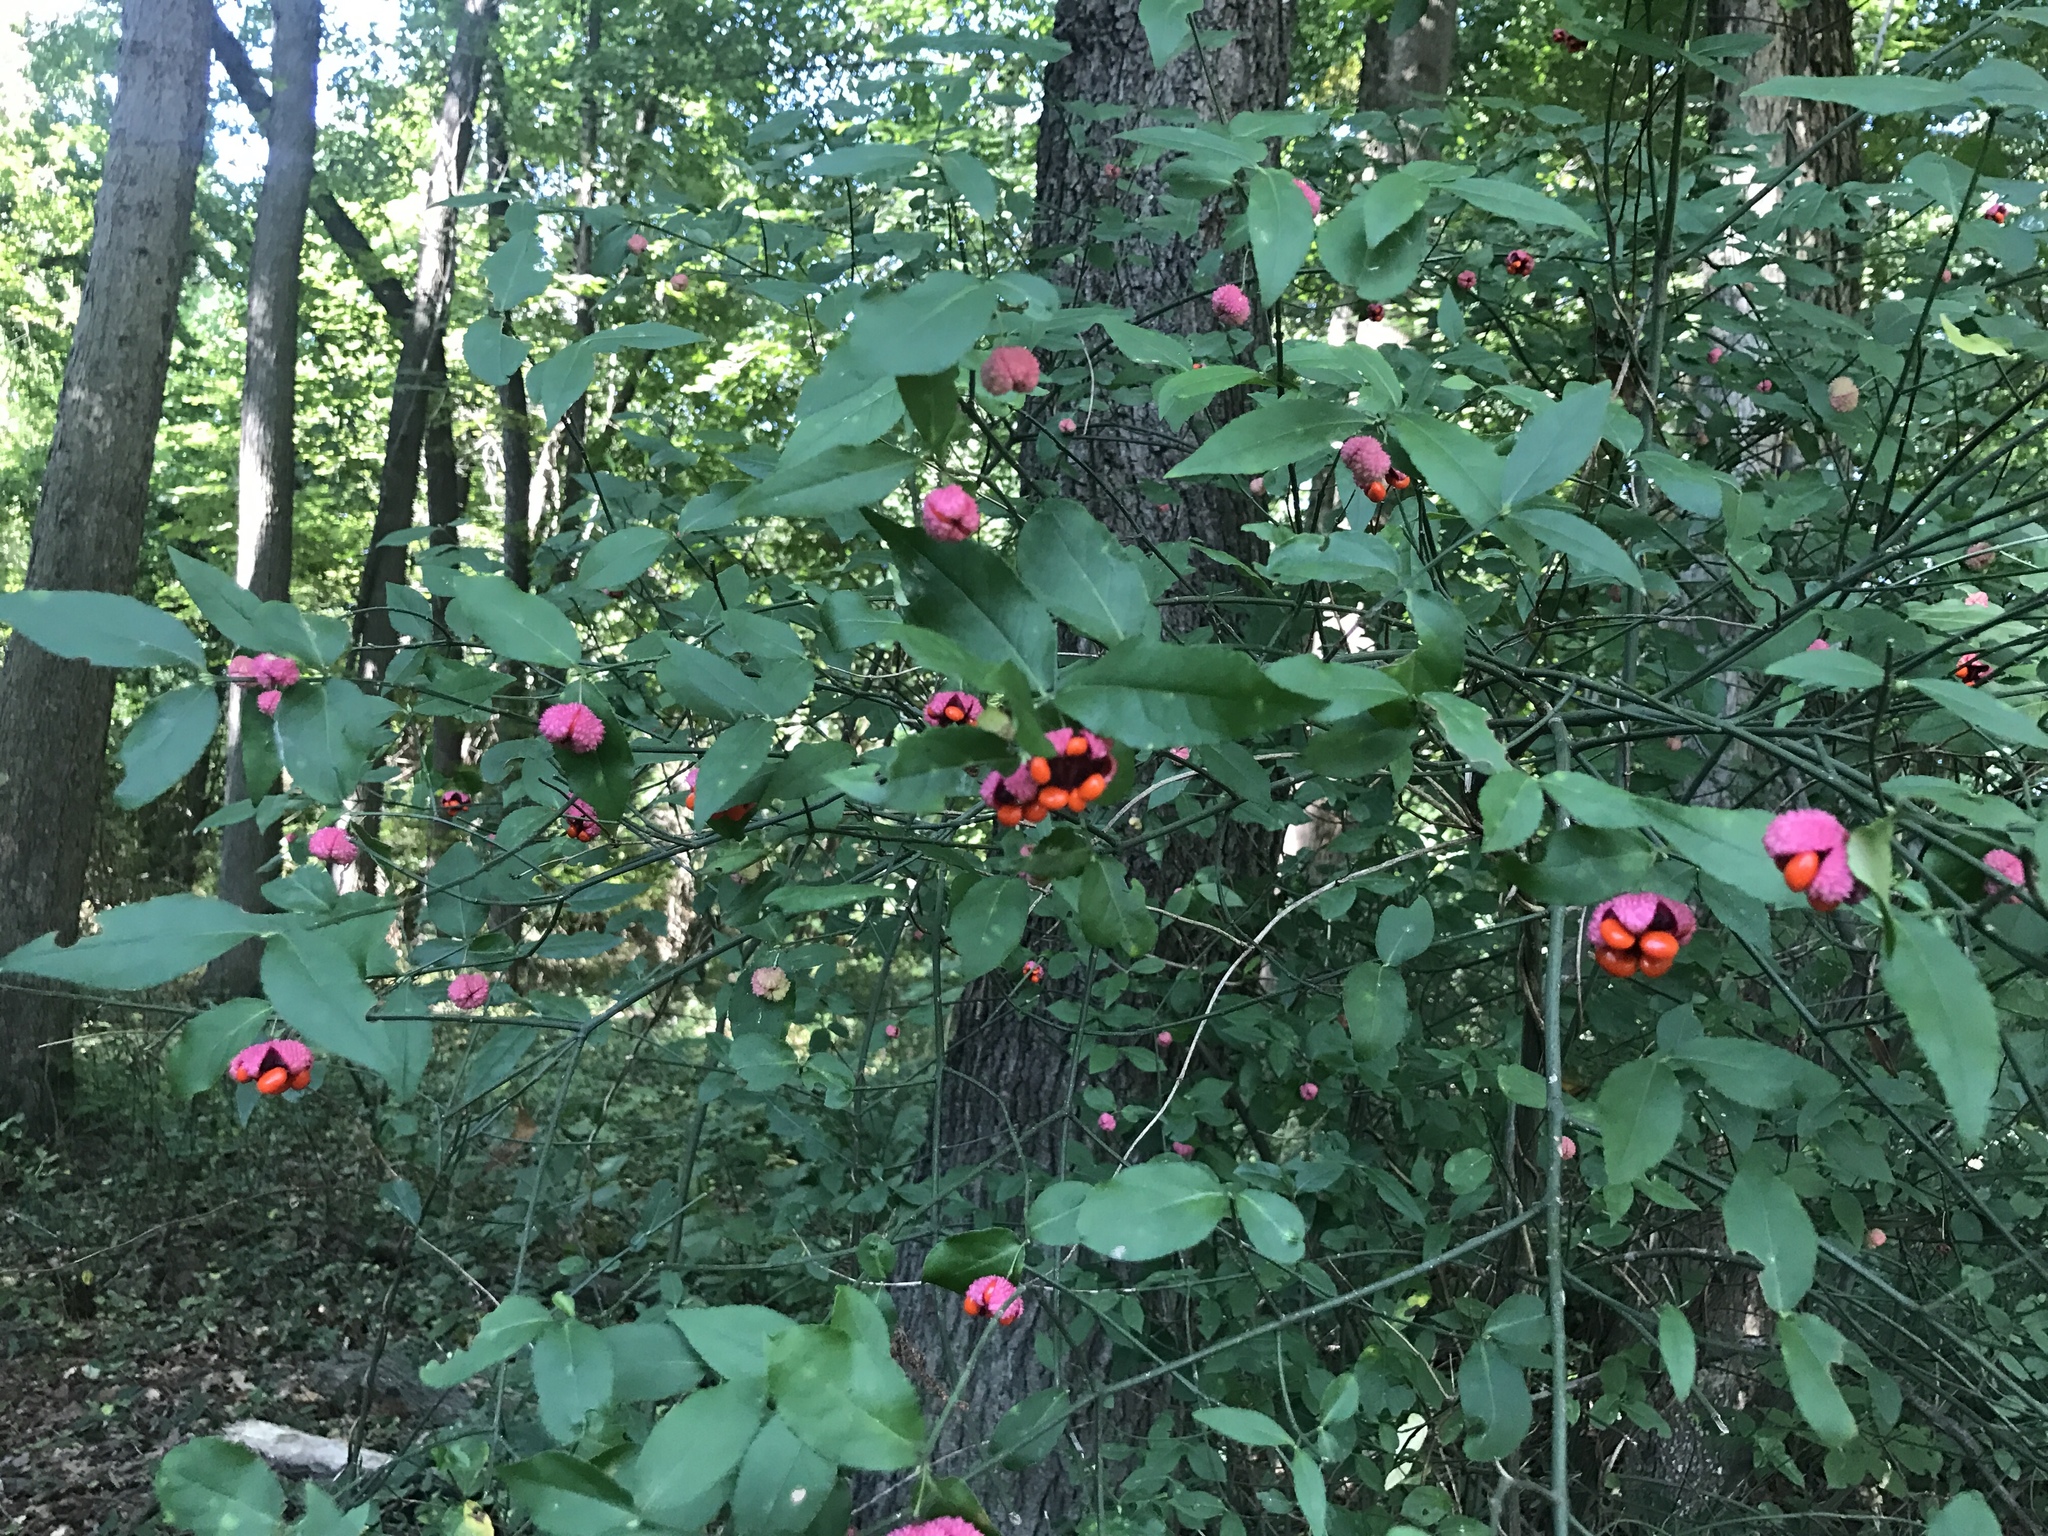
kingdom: Plantae
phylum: Tracheophyta
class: Magnoliopsida
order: Celastrales
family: Celastraceae
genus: Euonymus
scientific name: Euonymus americanus
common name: Bursting-heart
